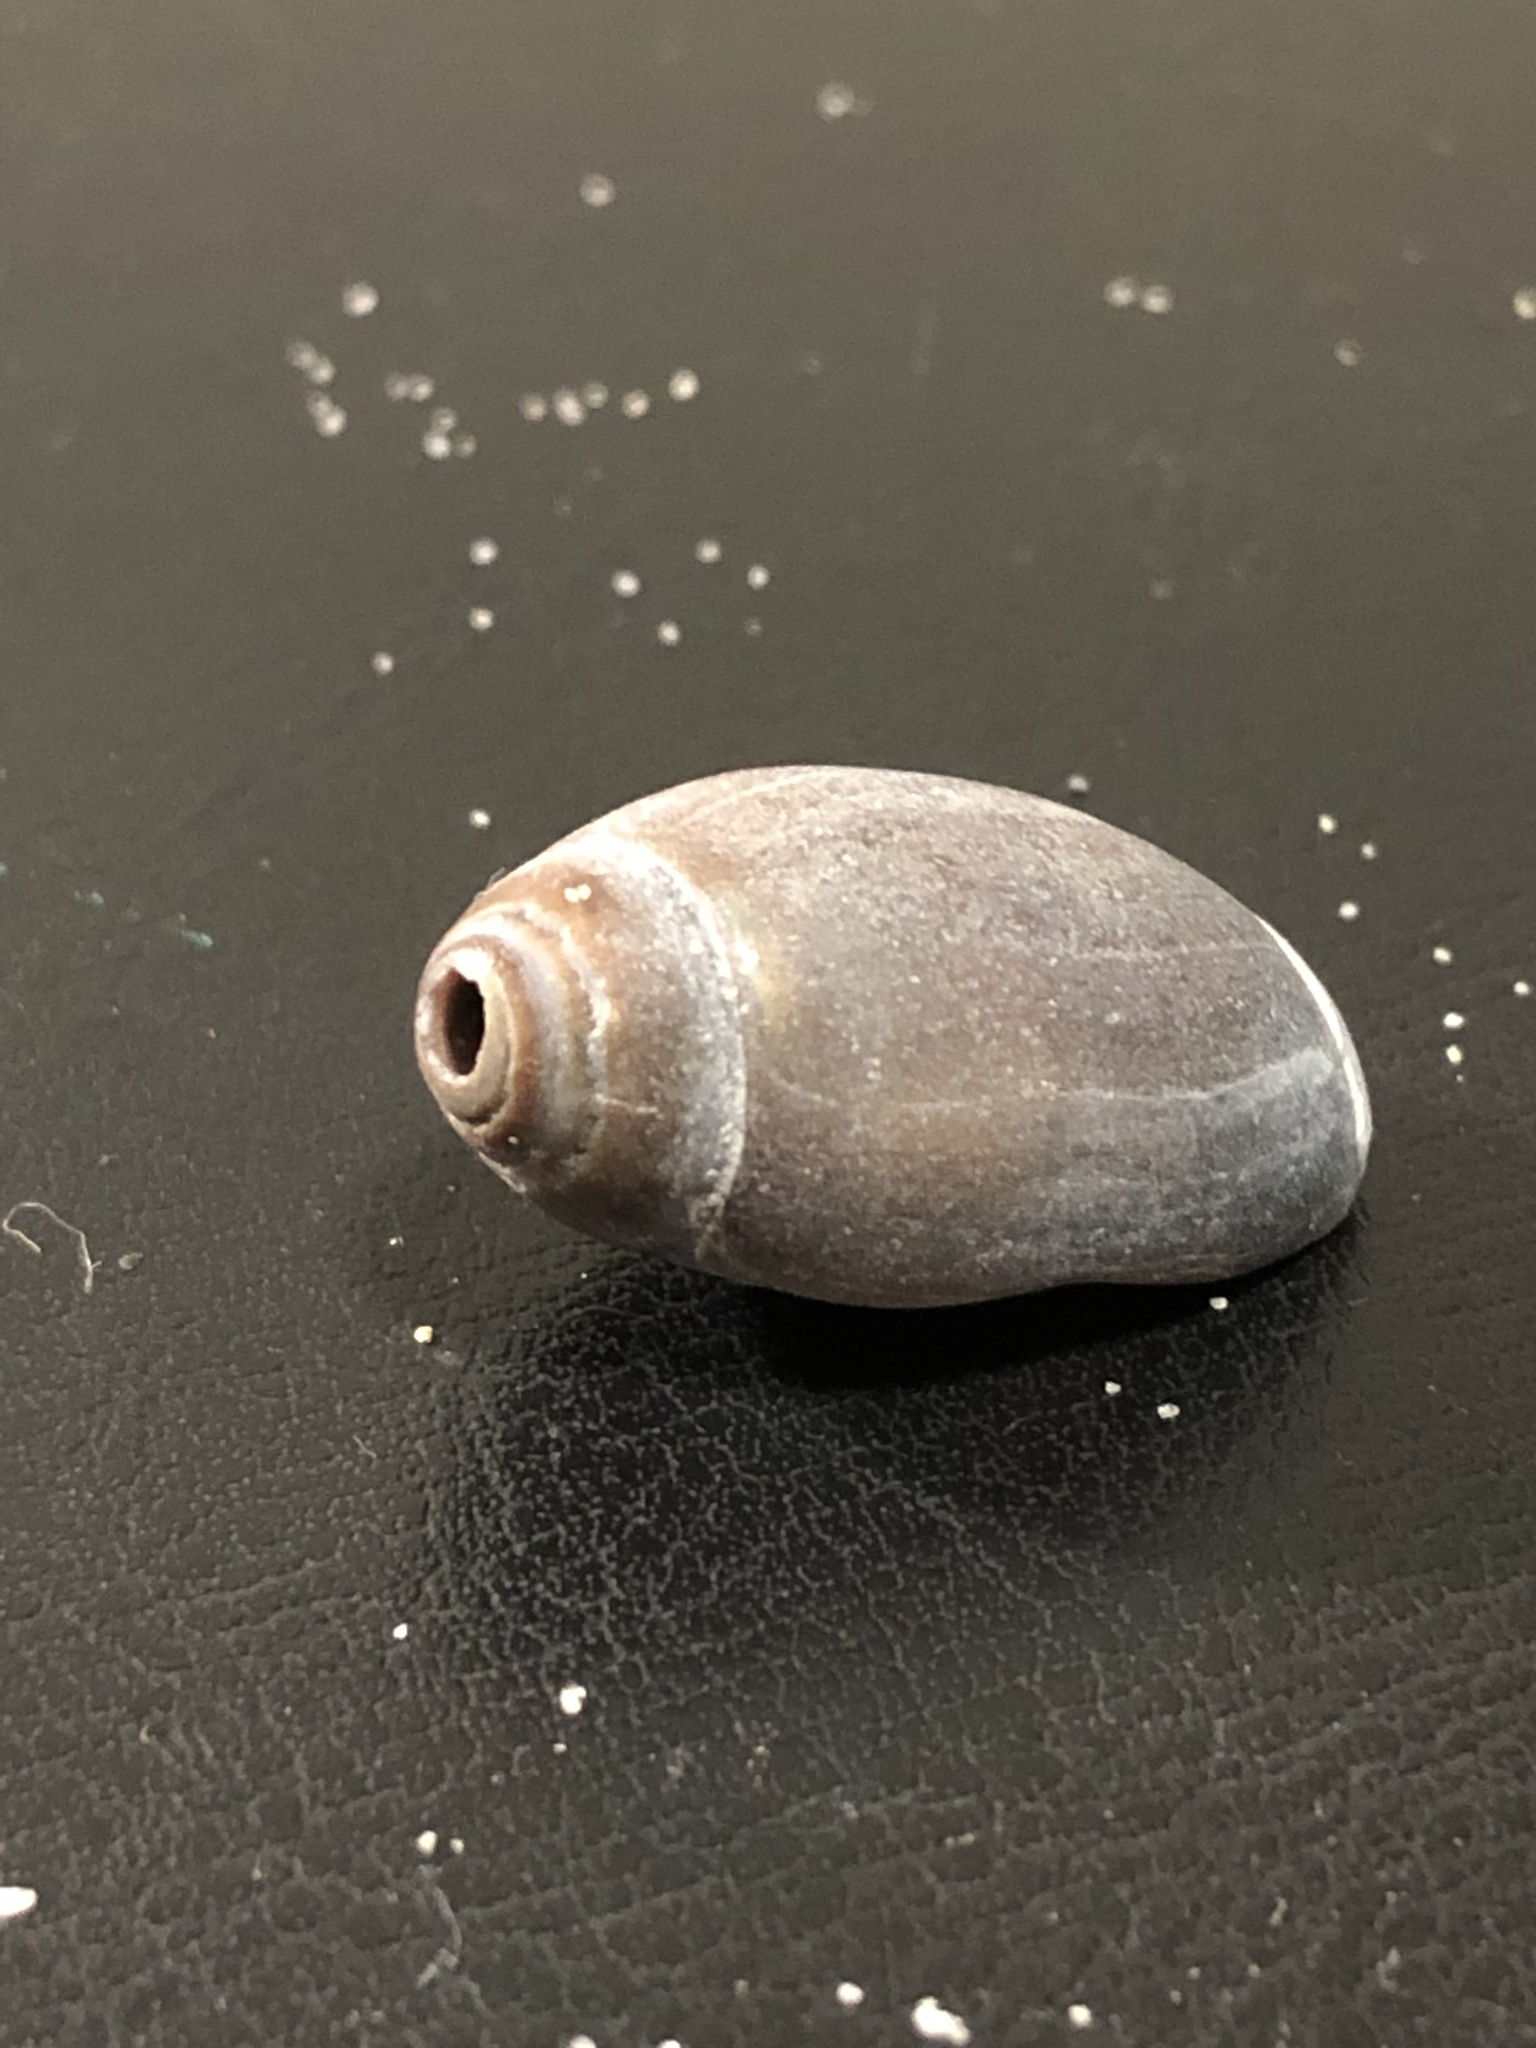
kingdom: Animalia
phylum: Mollusca
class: Gastropoda
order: Neogastropoda
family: Olividae
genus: Callianax
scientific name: Callianax biplicata
